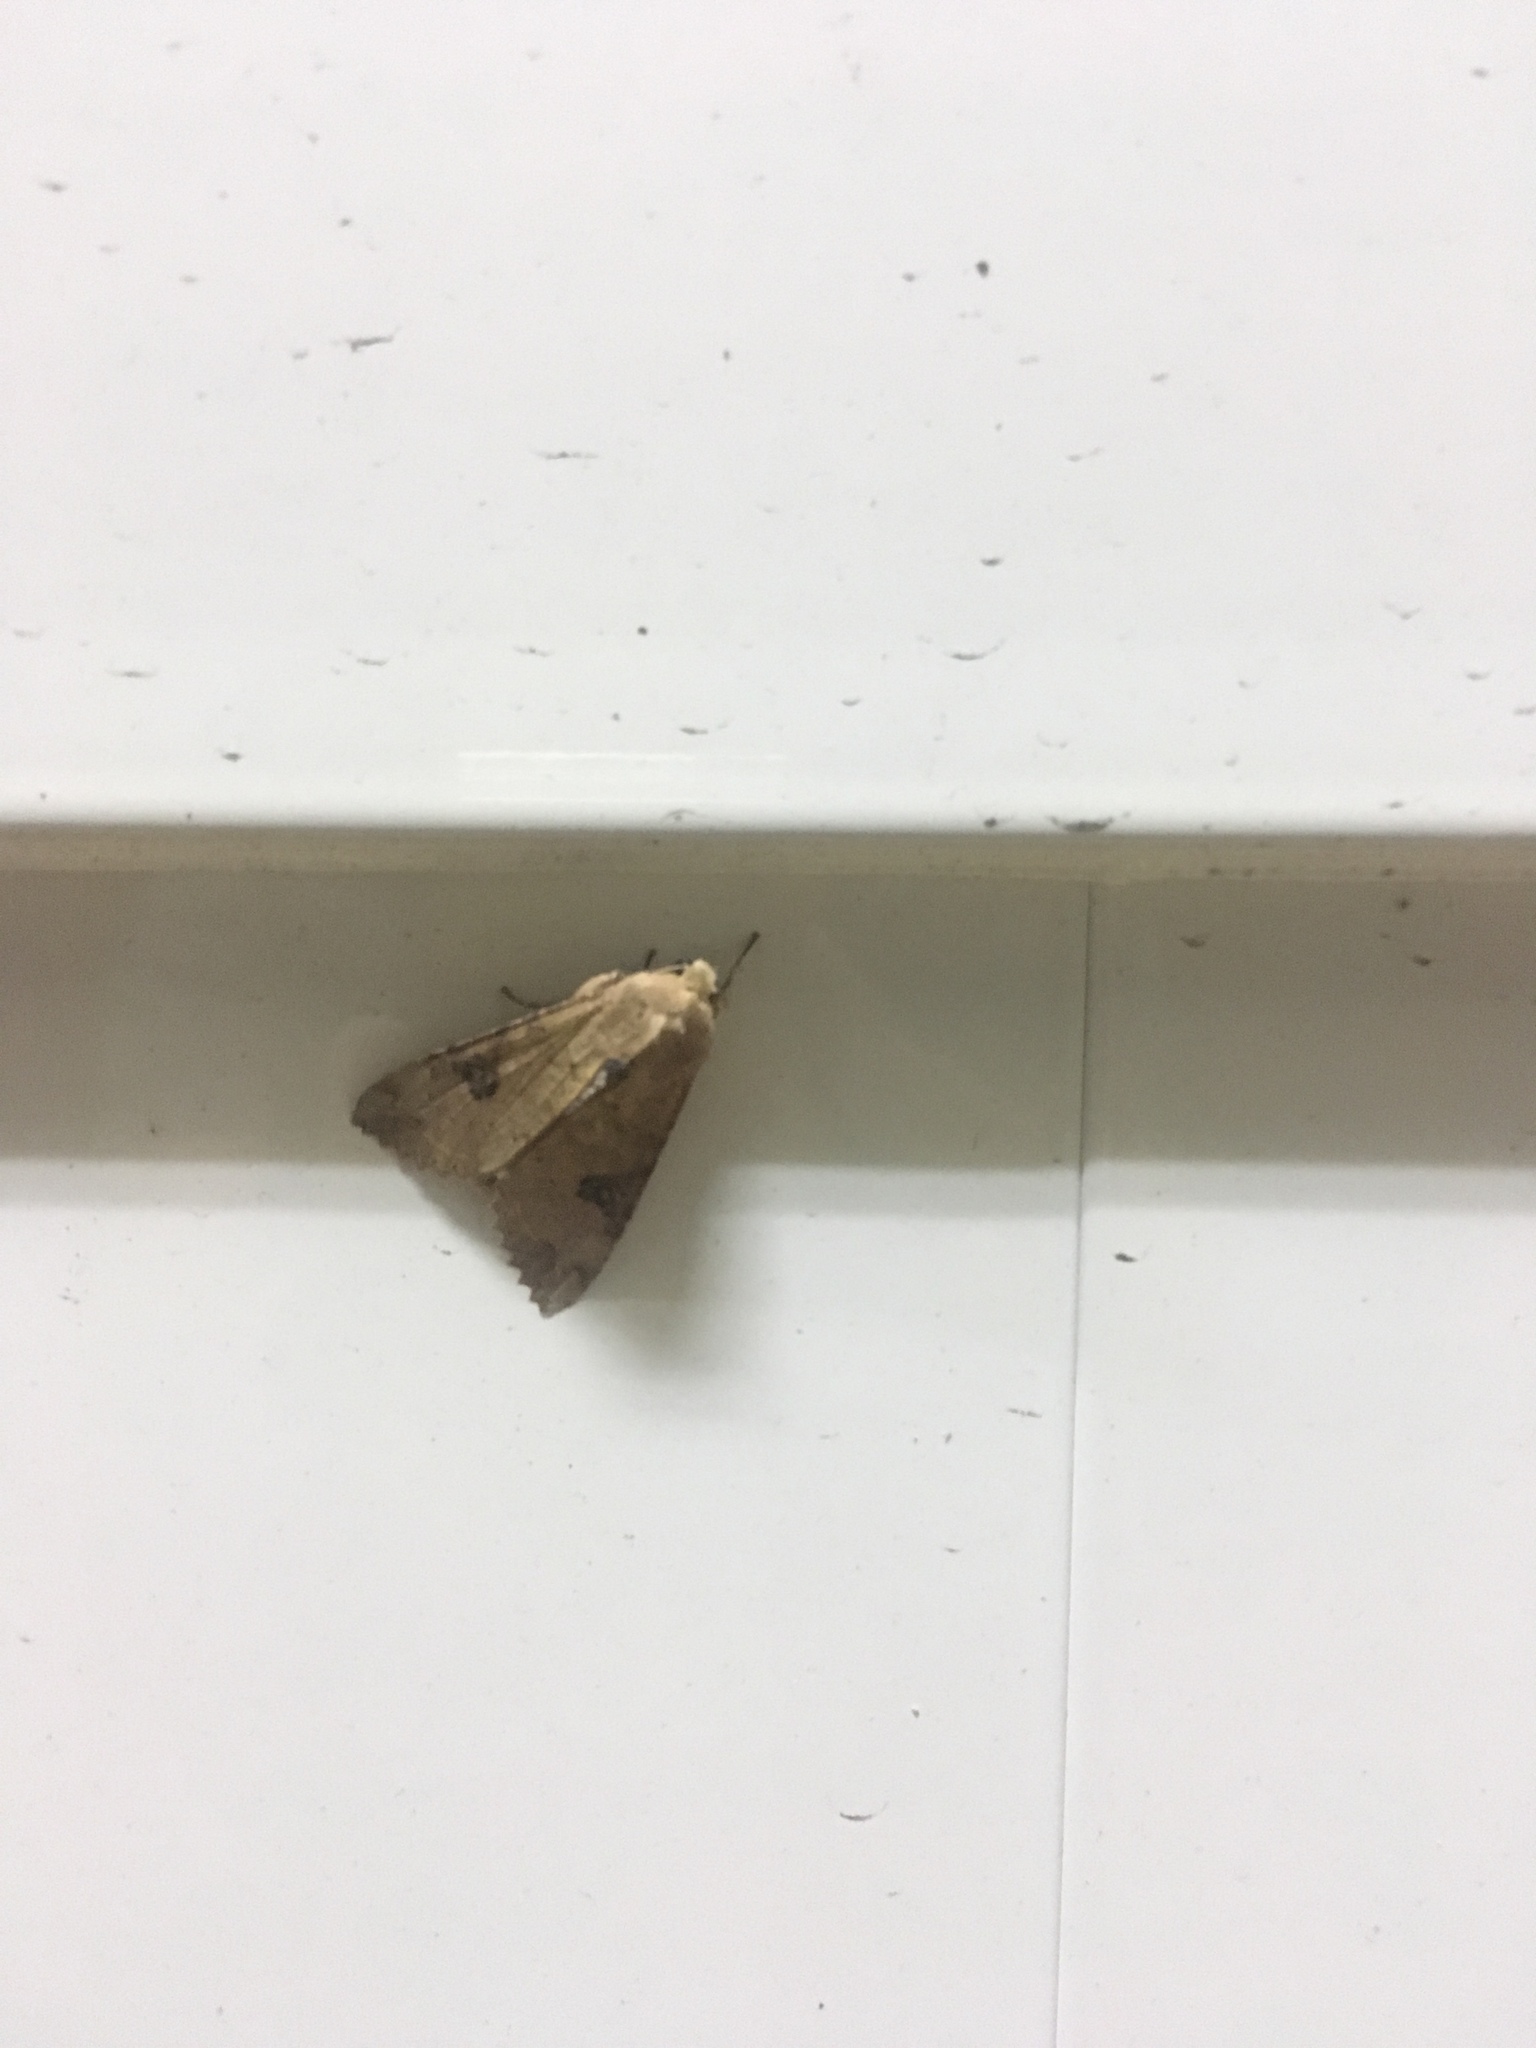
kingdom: Animalia
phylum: Arthropoda
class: Insecta
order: Lepidoptera
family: Noctuidae
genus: Tiracola
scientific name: Tiracola plagiata
